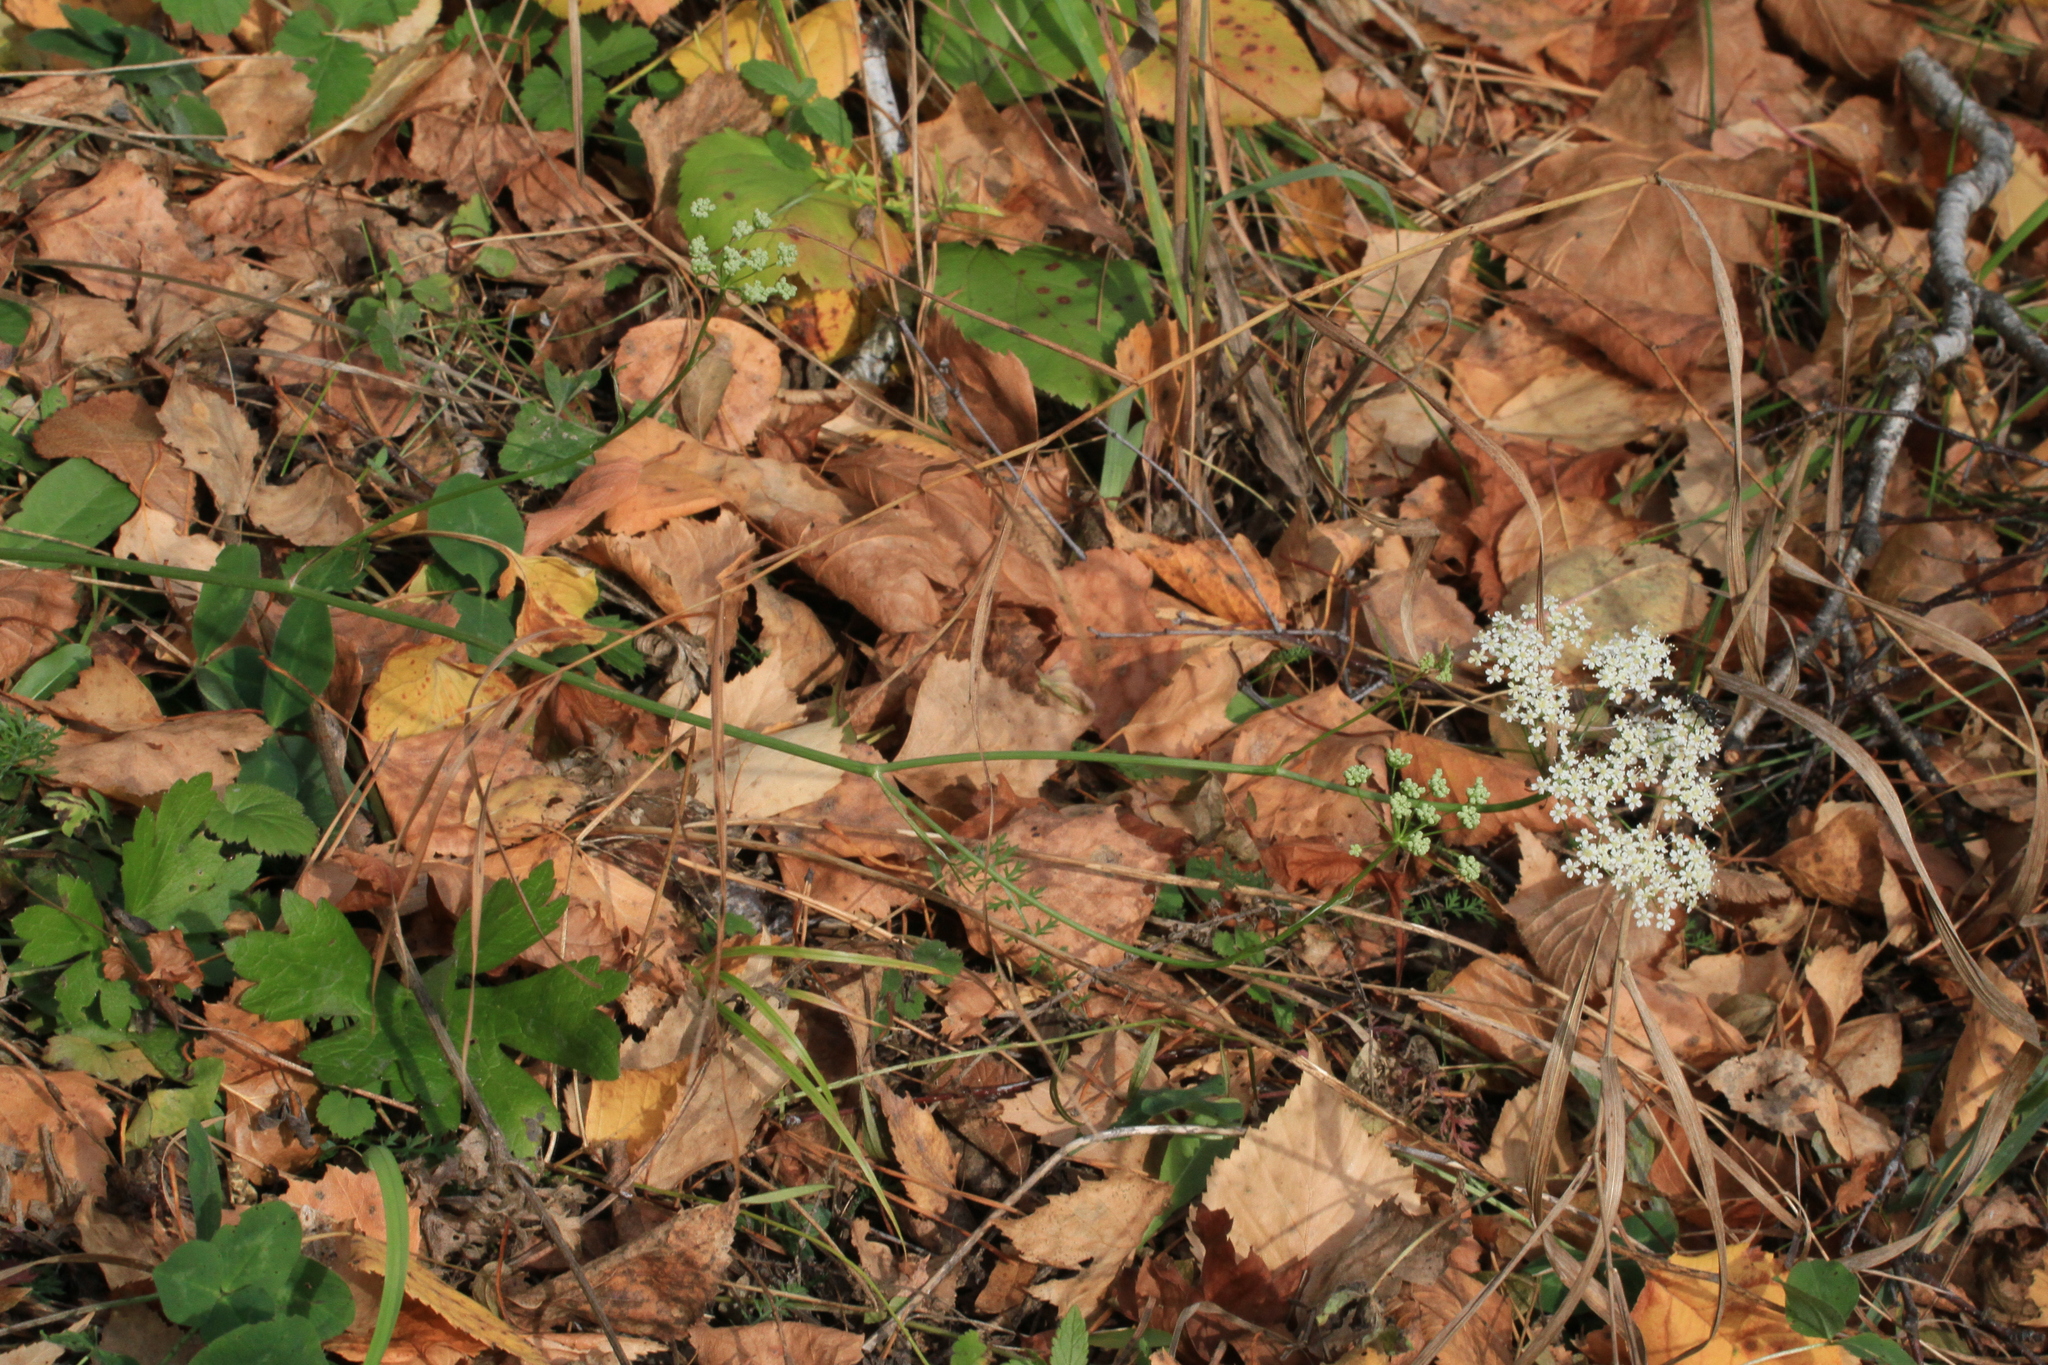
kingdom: Plantae
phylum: Tracheophyta
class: Magnoliopsida
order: Apiales
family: Apiaceae
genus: Pimpinella
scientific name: Pimpinella saxifraga
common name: Burnet-saxifrage
